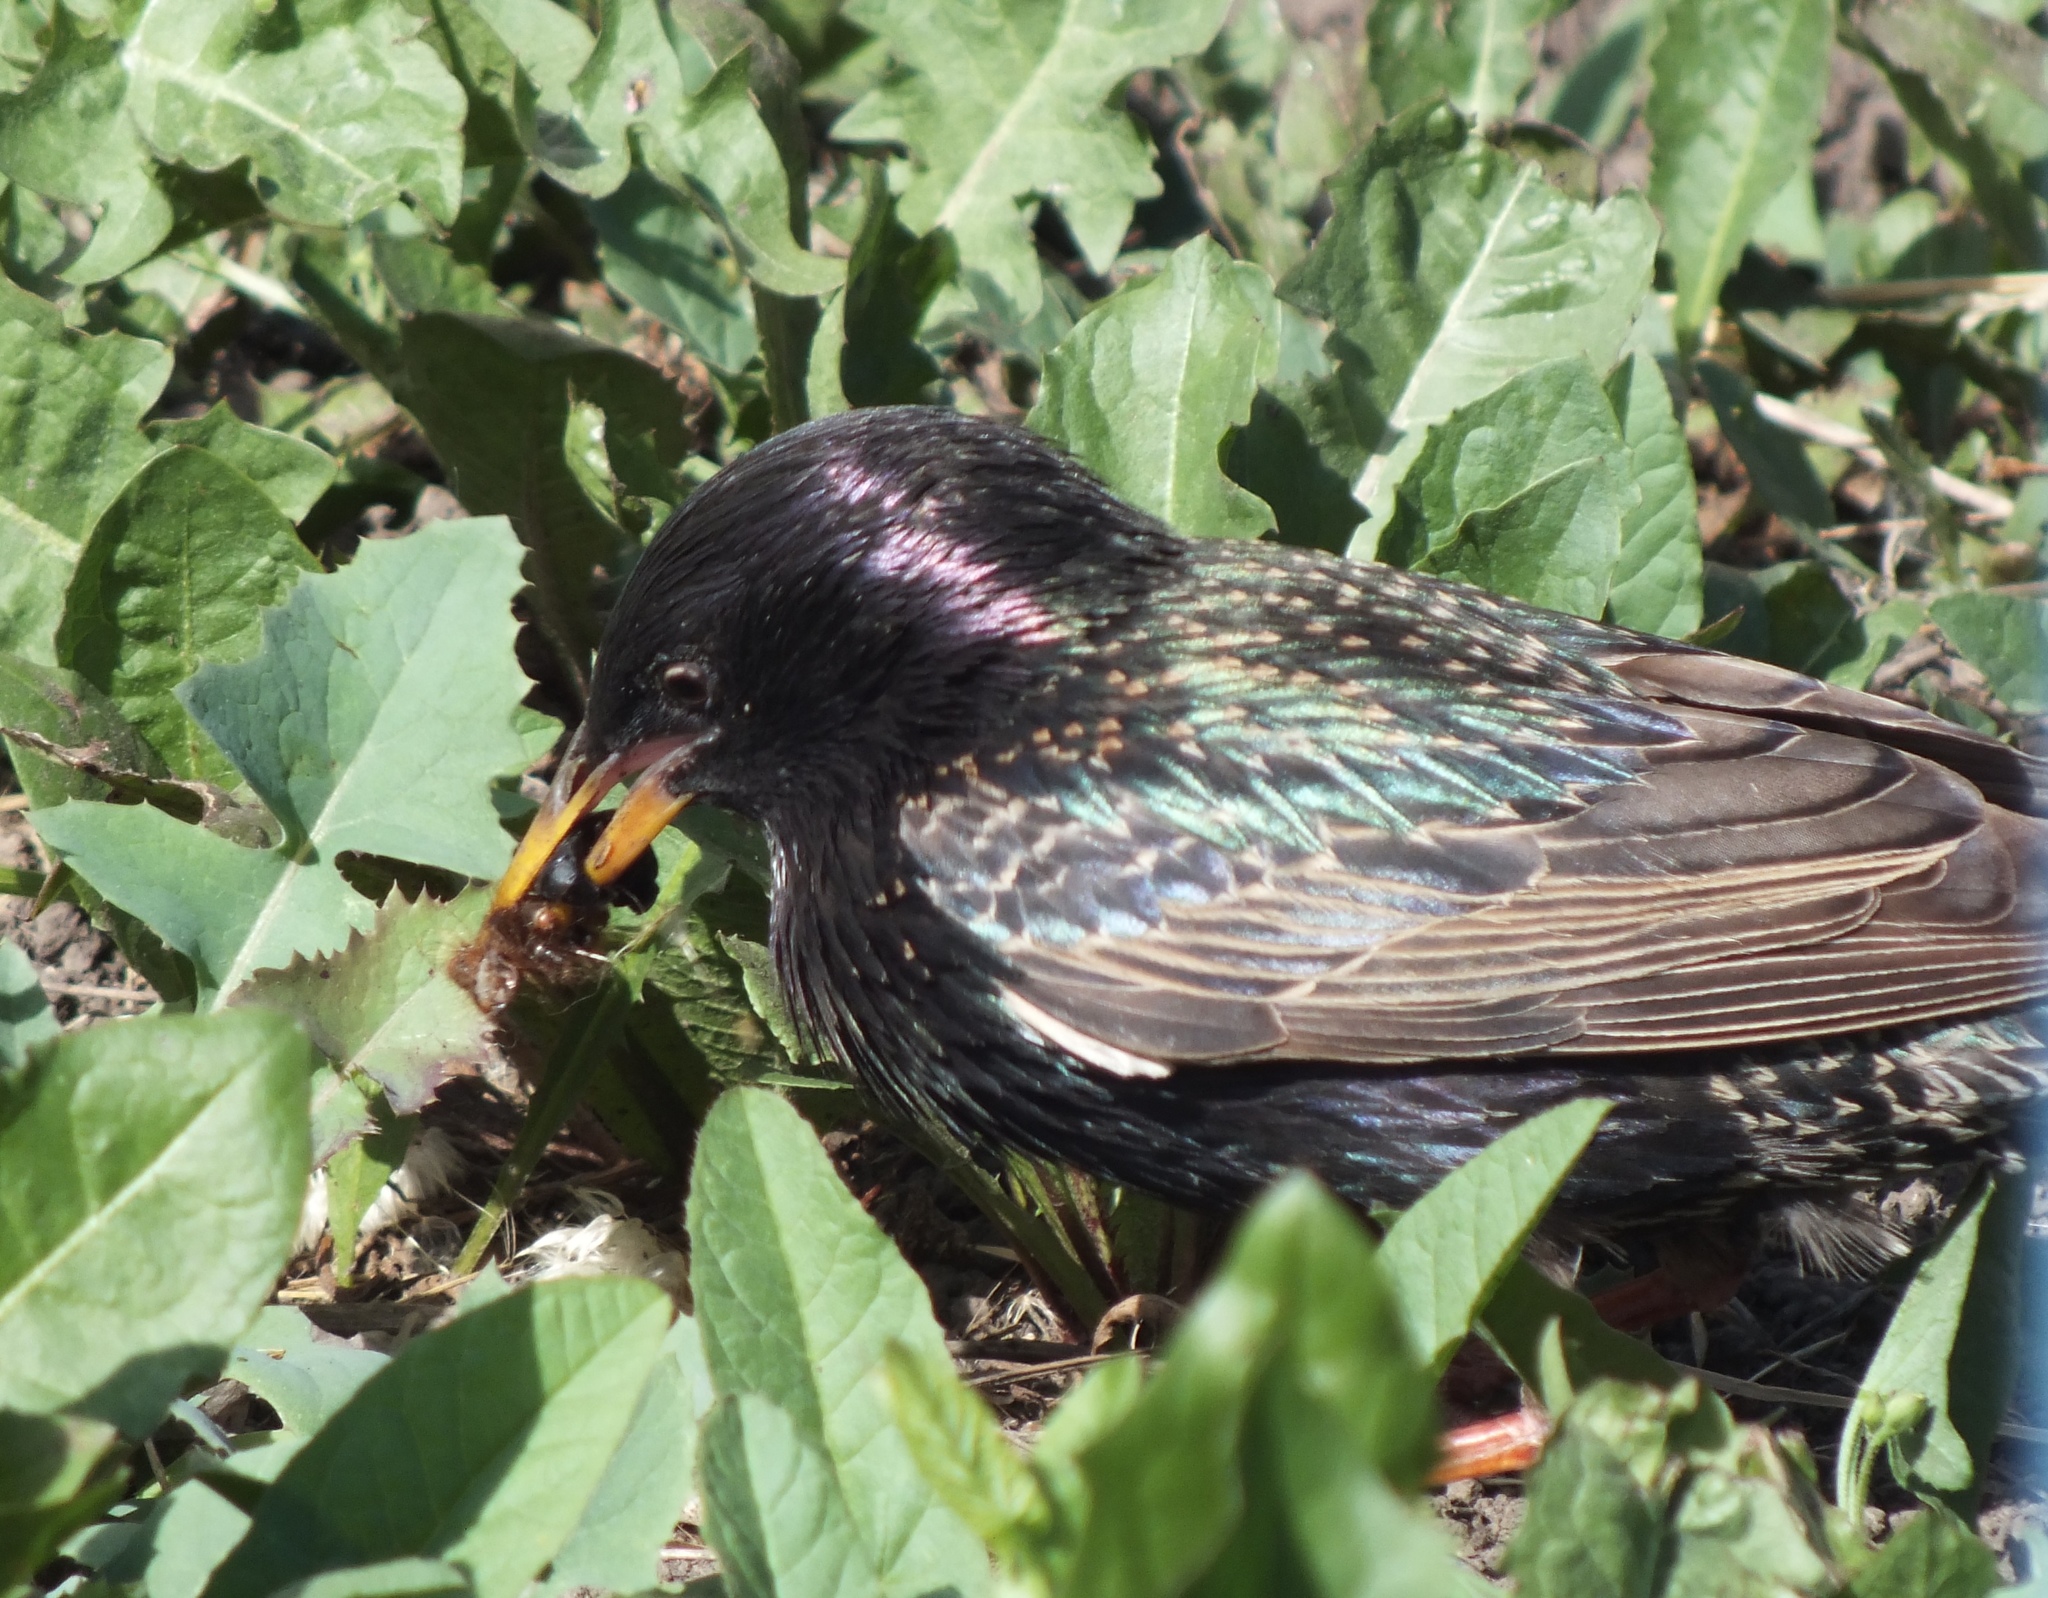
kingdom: Animalia
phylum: Chordata
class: Aves
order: Passeriformes
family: Sturnidae
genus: Sturnus
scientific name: Sturnus vulgaris
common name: Common starling
